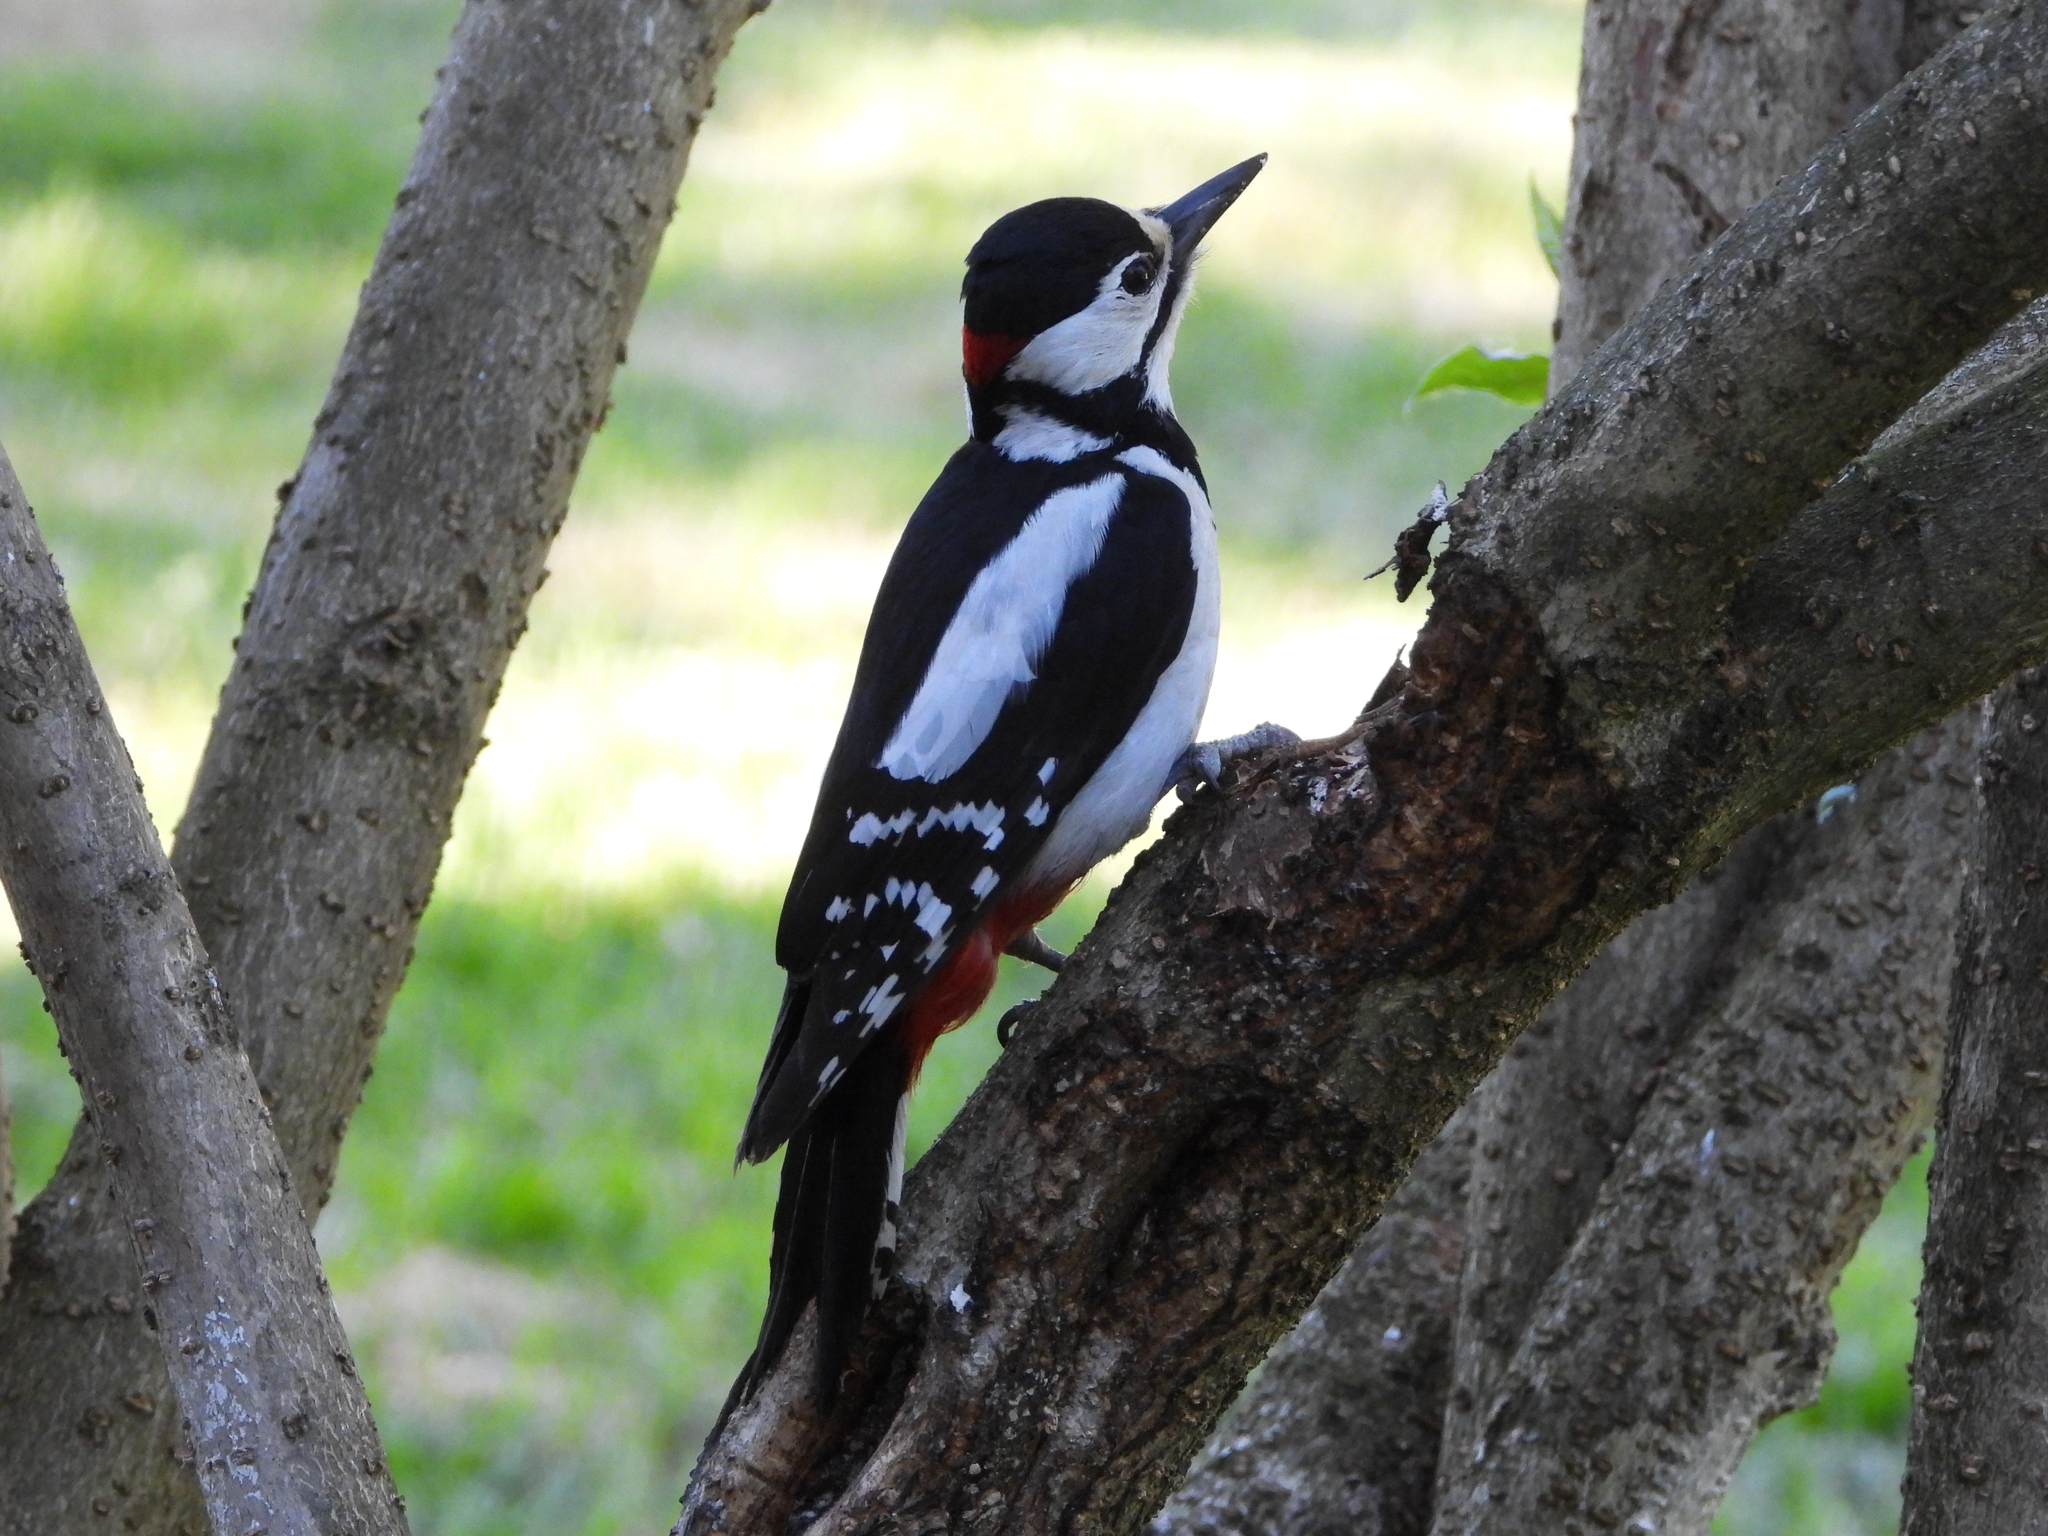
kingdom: Animalia
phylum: Chordata
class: Aves
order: Piciformes
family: Picidae
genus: Dendrocopos
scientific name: Dendrocopos major
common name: Great spotted woodpecker
